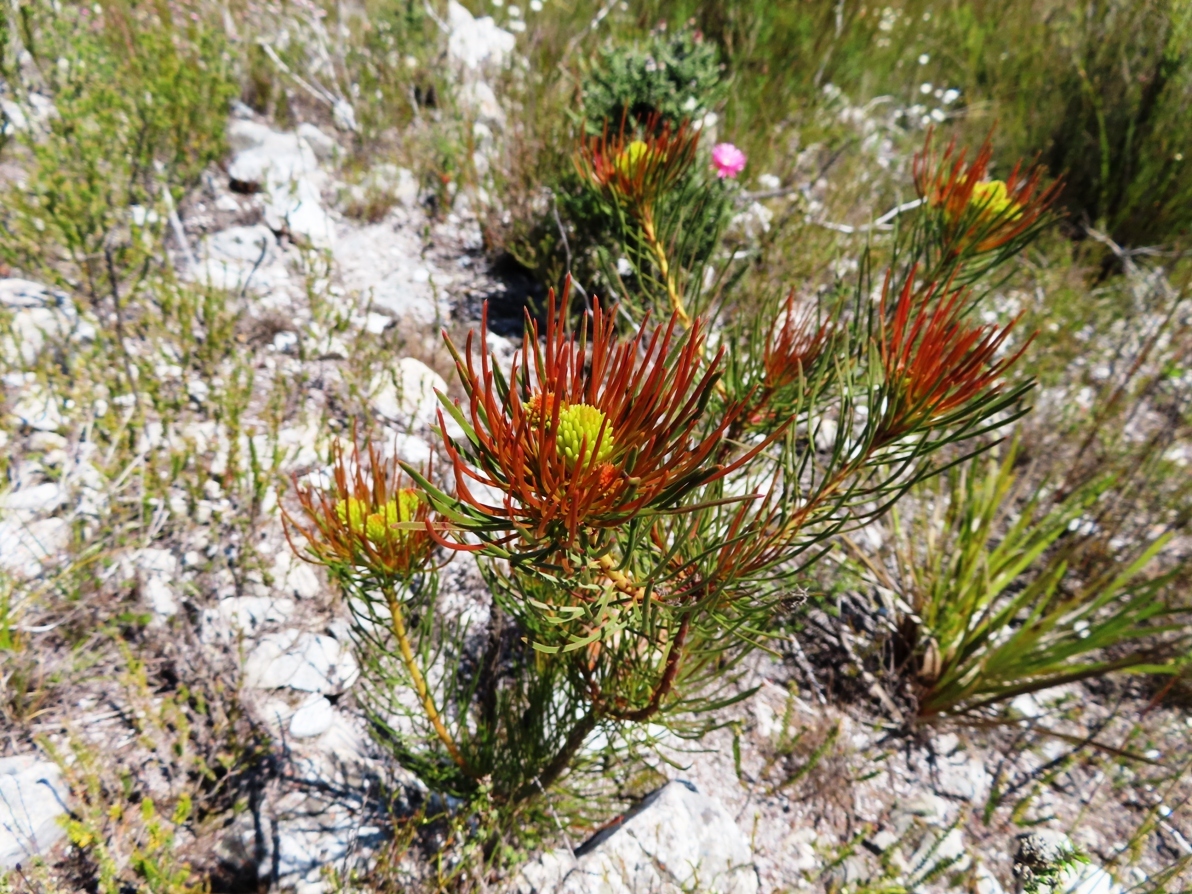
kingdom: Plantae
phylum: Tracheophyta
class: Magnoliopsida
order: Proteales
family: Proteaceae
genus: Aulax
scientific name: Aulax pallasia
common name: Needle-leaf featherbush
